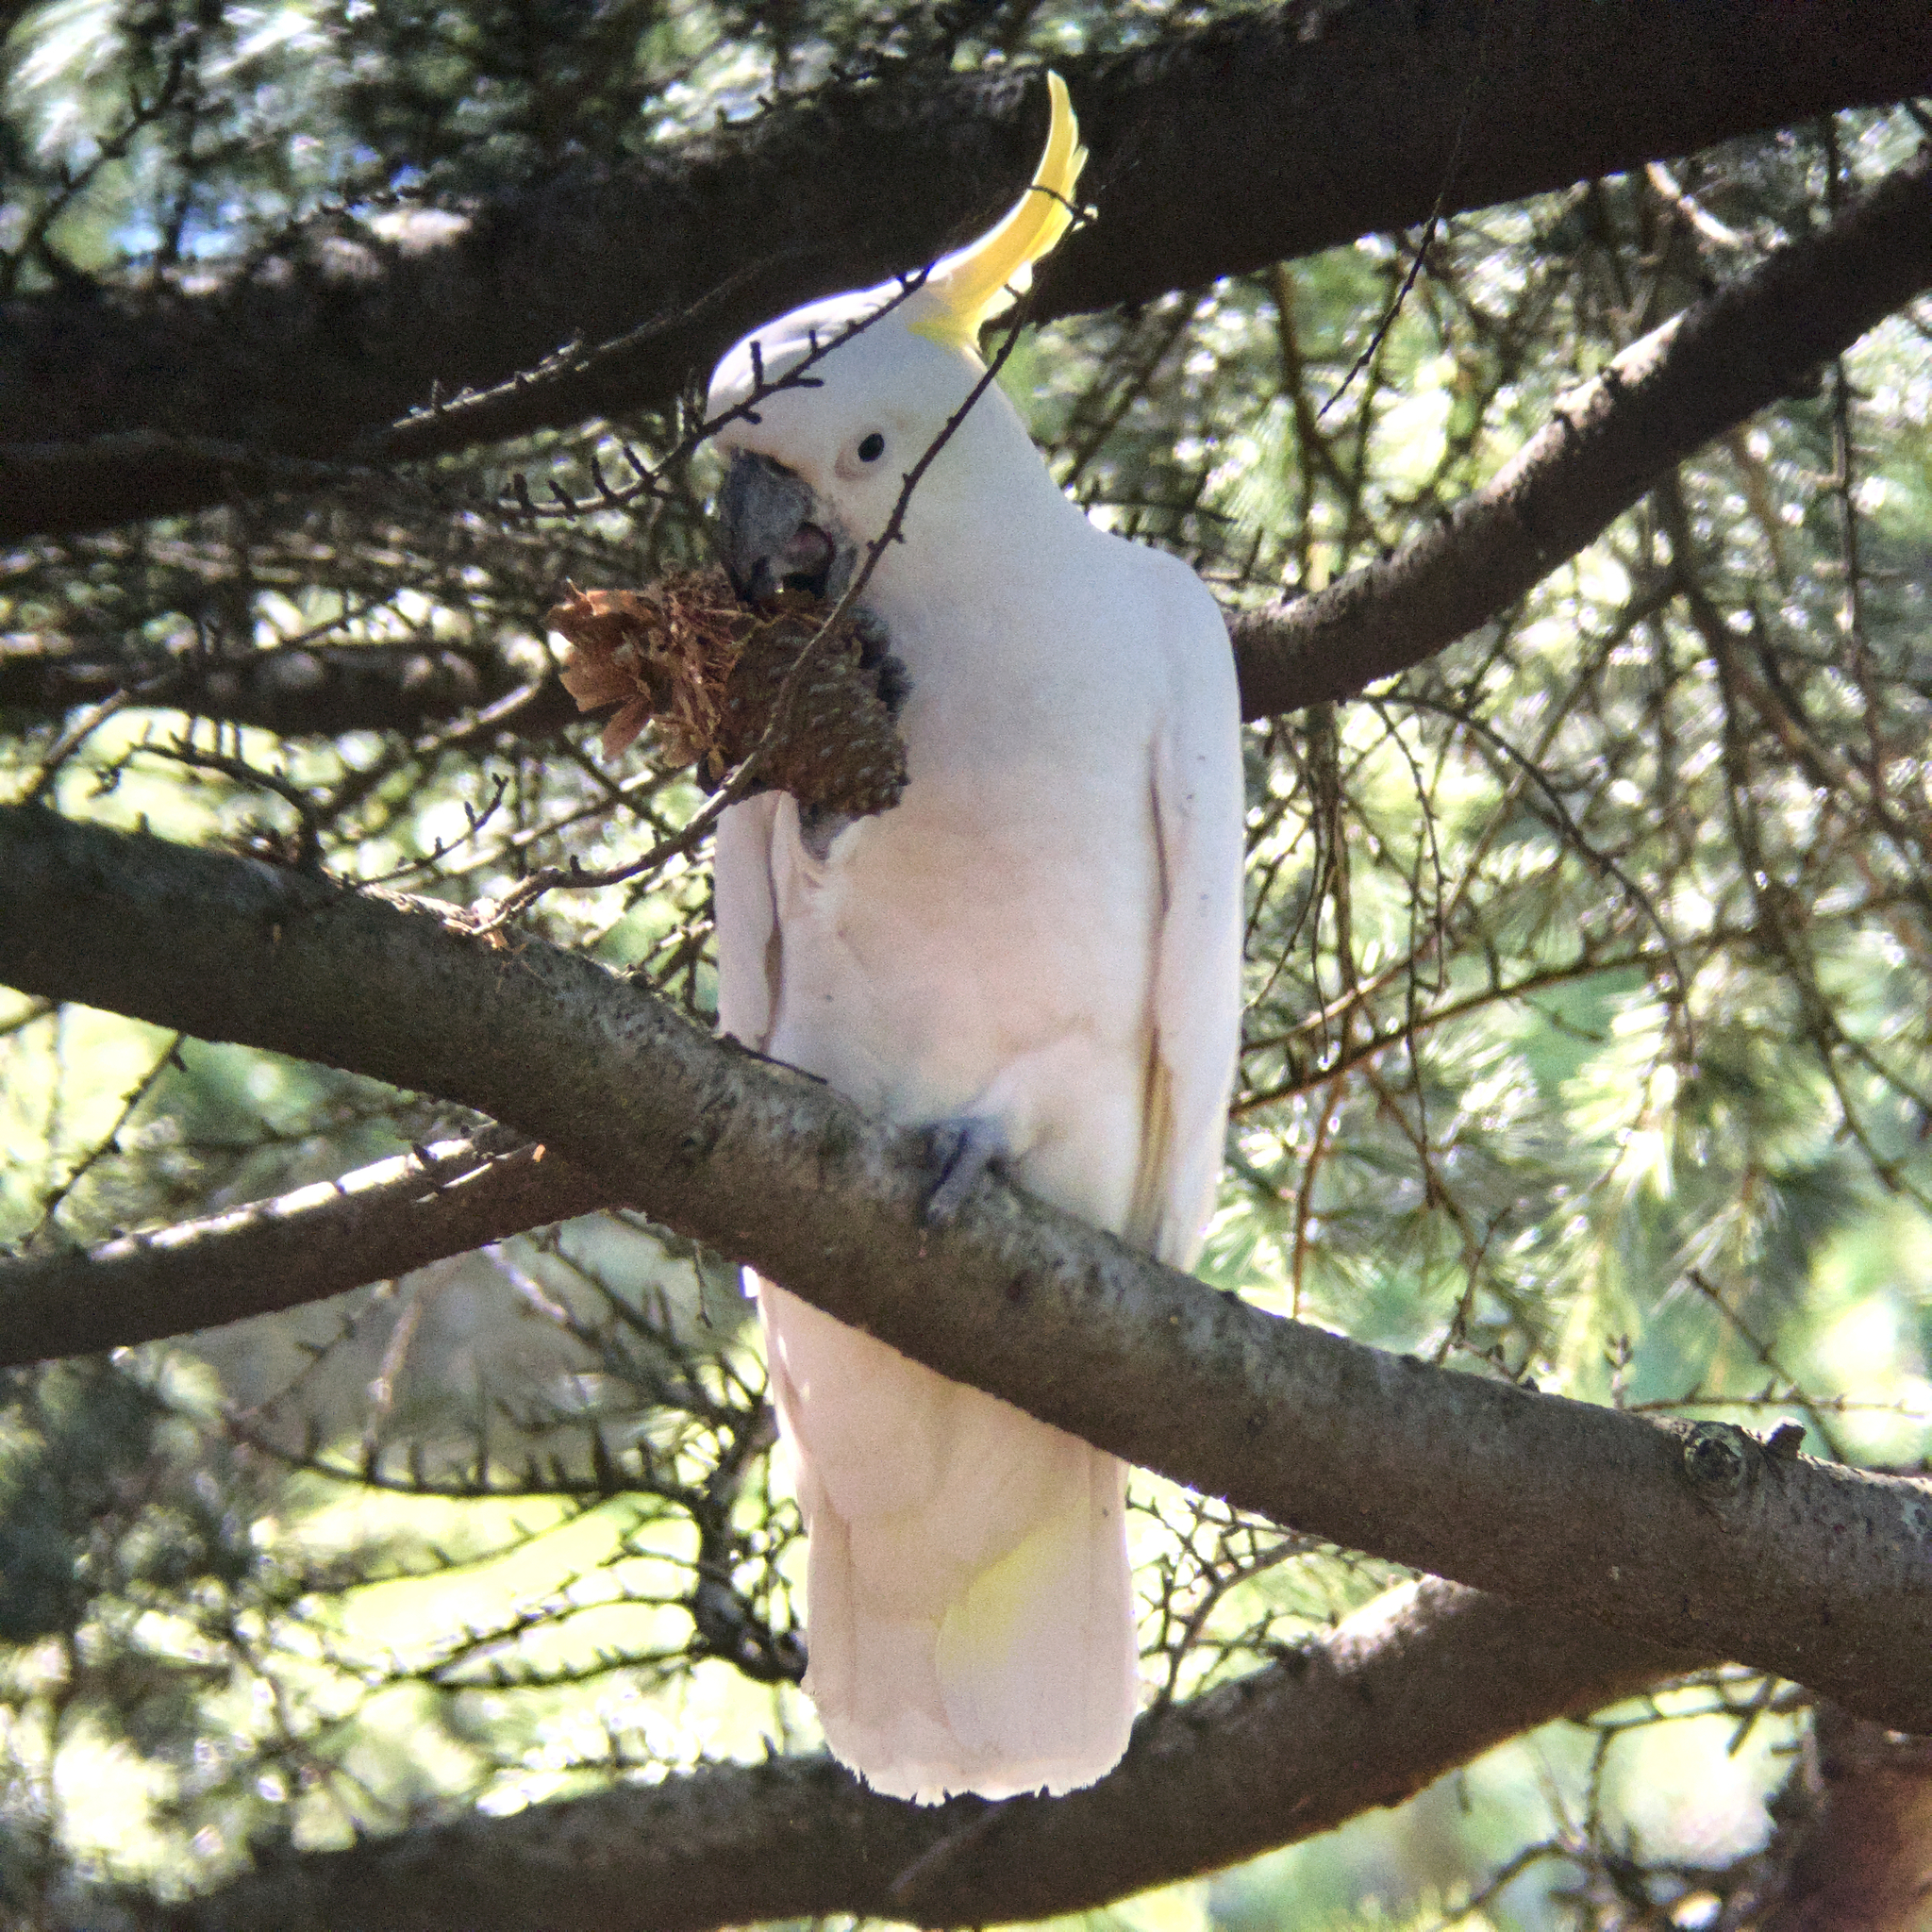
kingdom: Animalia
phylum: Chordata
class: Aves
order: Psittaciformes
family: Psittacidae
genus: Cacatua
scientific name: Cacatua galerita
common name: Sulphur-crested cockatoo
